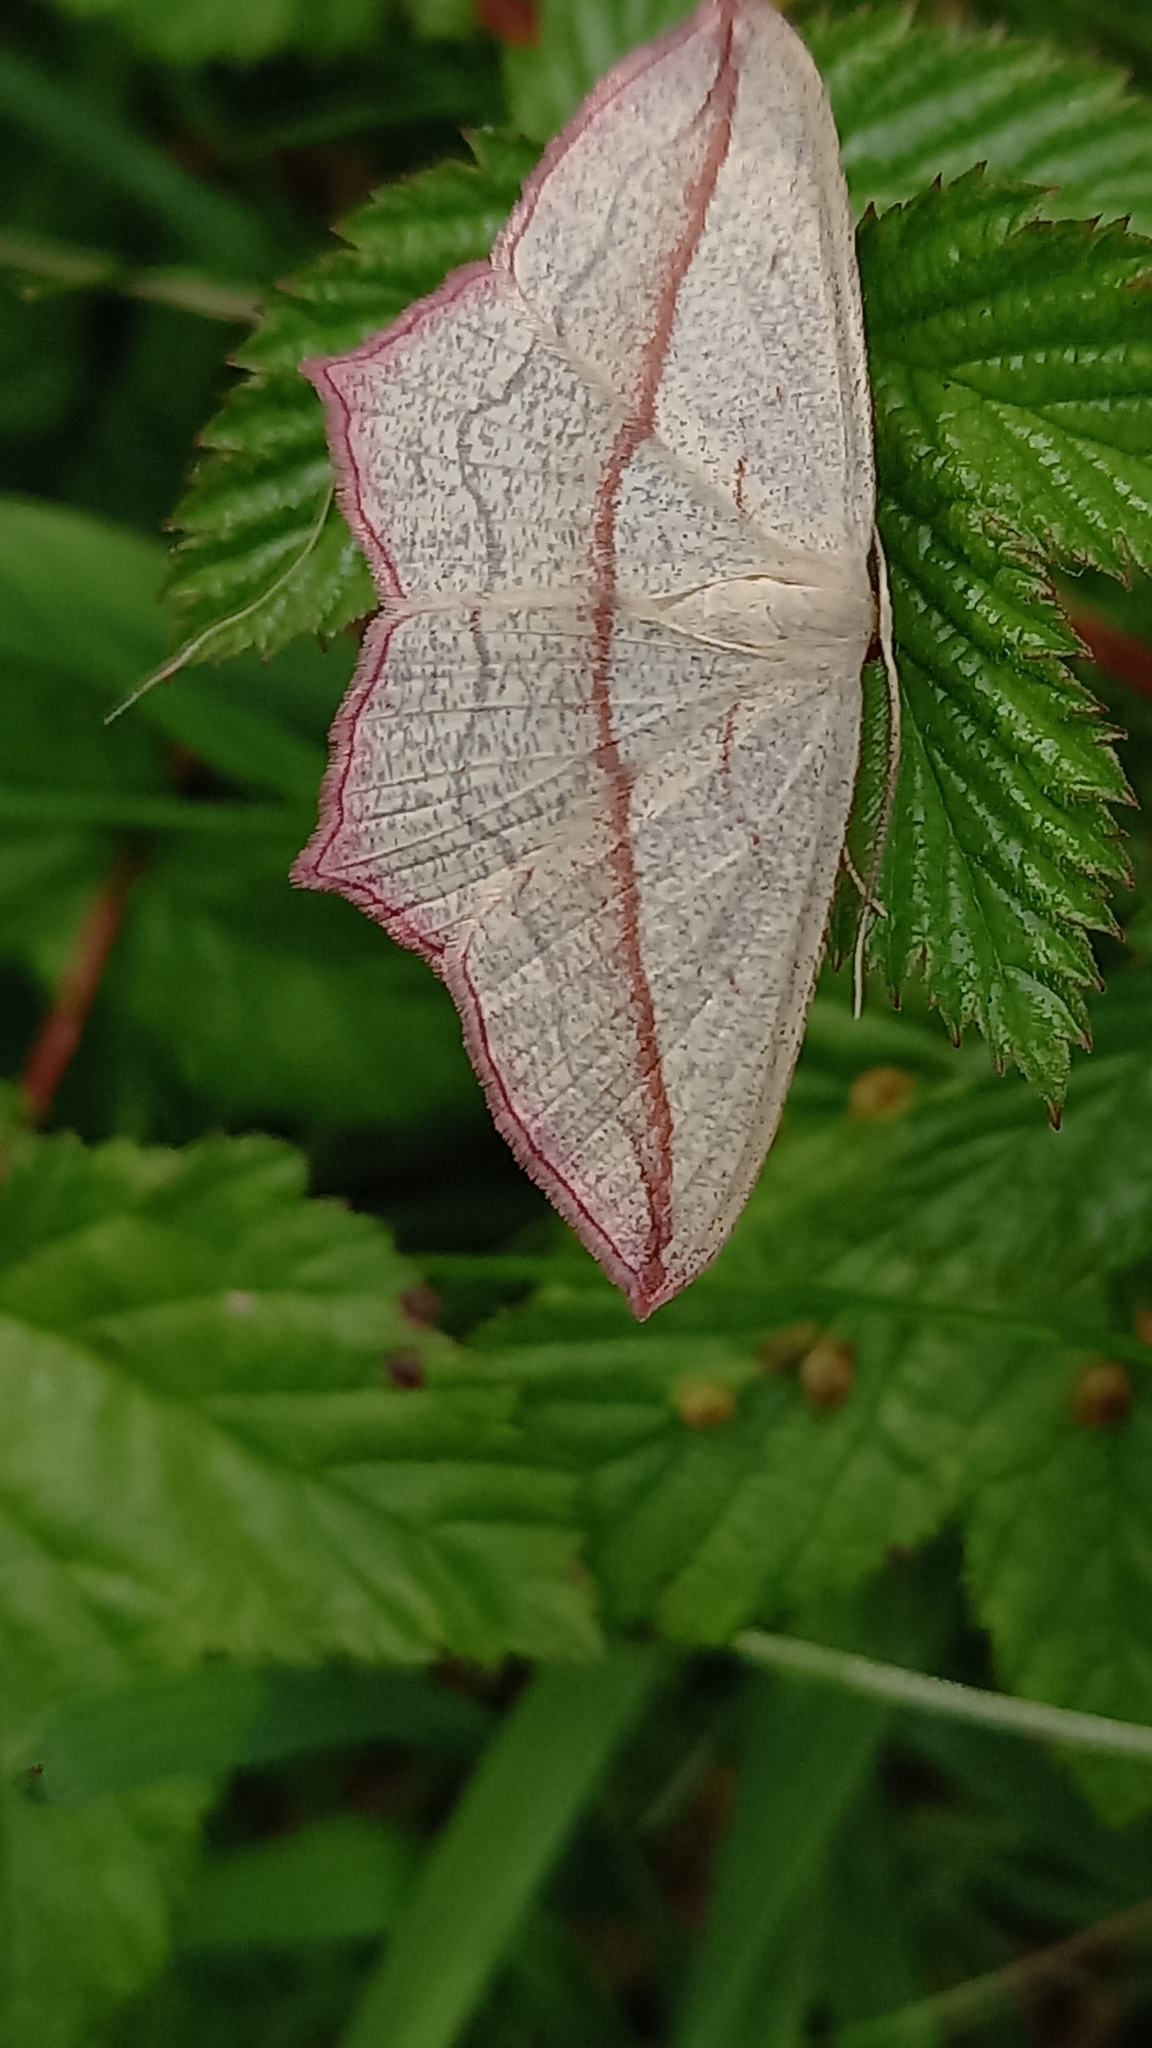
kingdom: Animalia
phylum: Arthropoda
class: Insecta
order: Lepidoptera
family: Geometridae
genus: Timandra
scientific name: Timandra comae
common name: Blood-vein
